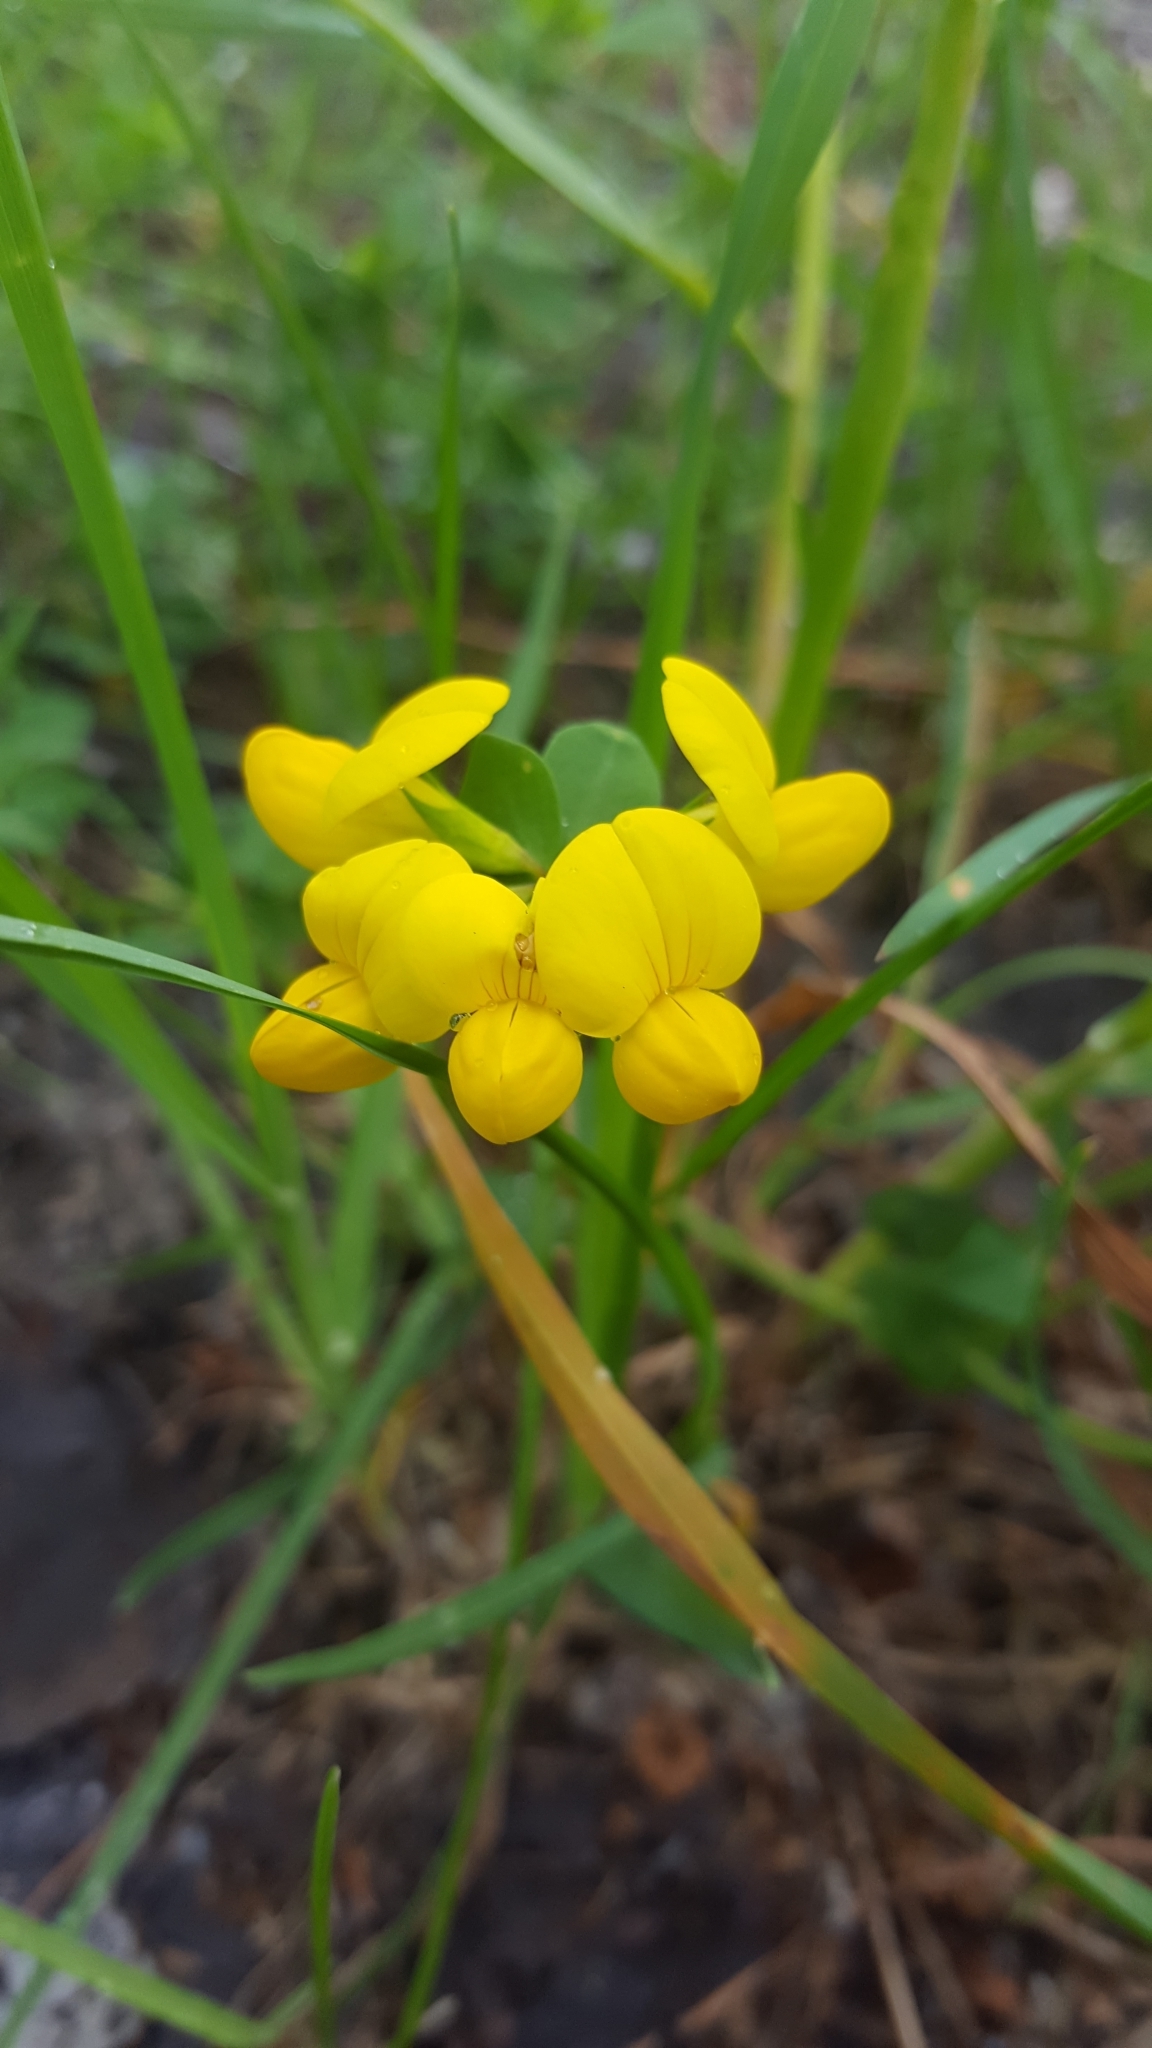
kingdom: Plantae
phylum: Tracheophyta
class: Magnoliopsida
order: Fabales
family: Fabaceae
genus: Lotus
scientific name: Lotus corniculatus
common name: Common bird's-foot-trefoil
